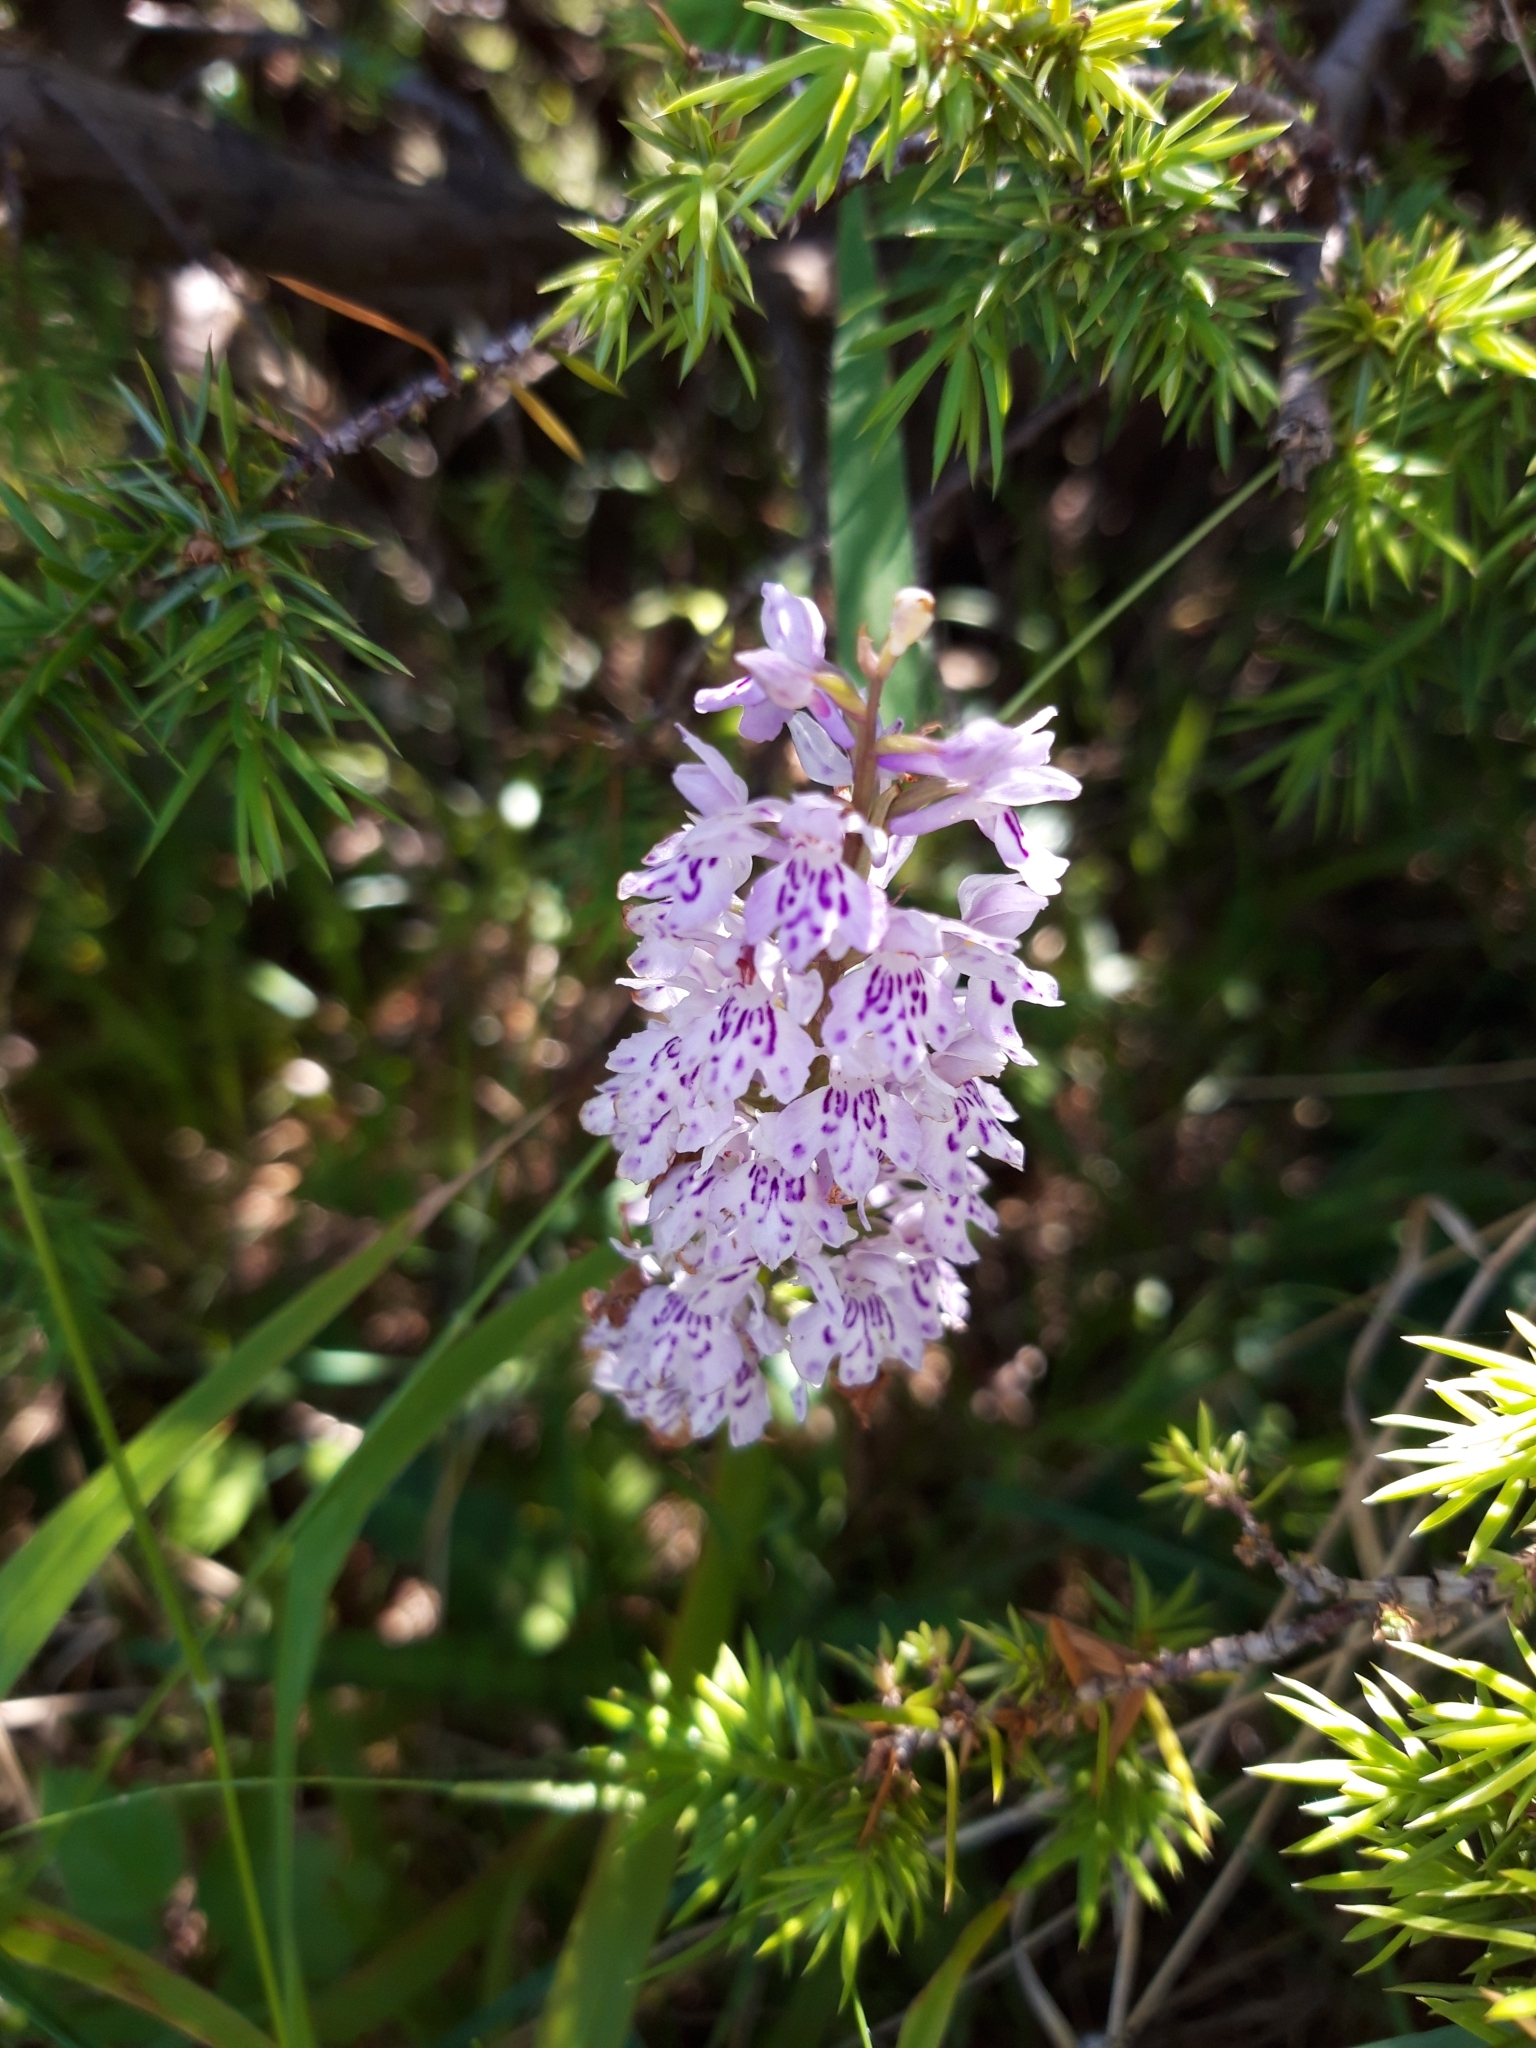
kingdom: Plantae
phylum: Tracheophyta
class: Liliopsida
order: Asparagales
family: Orchidaceae
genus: Dactylorhiza
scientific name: Dactylorhiza maculata
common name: Heath spotted-orchid
